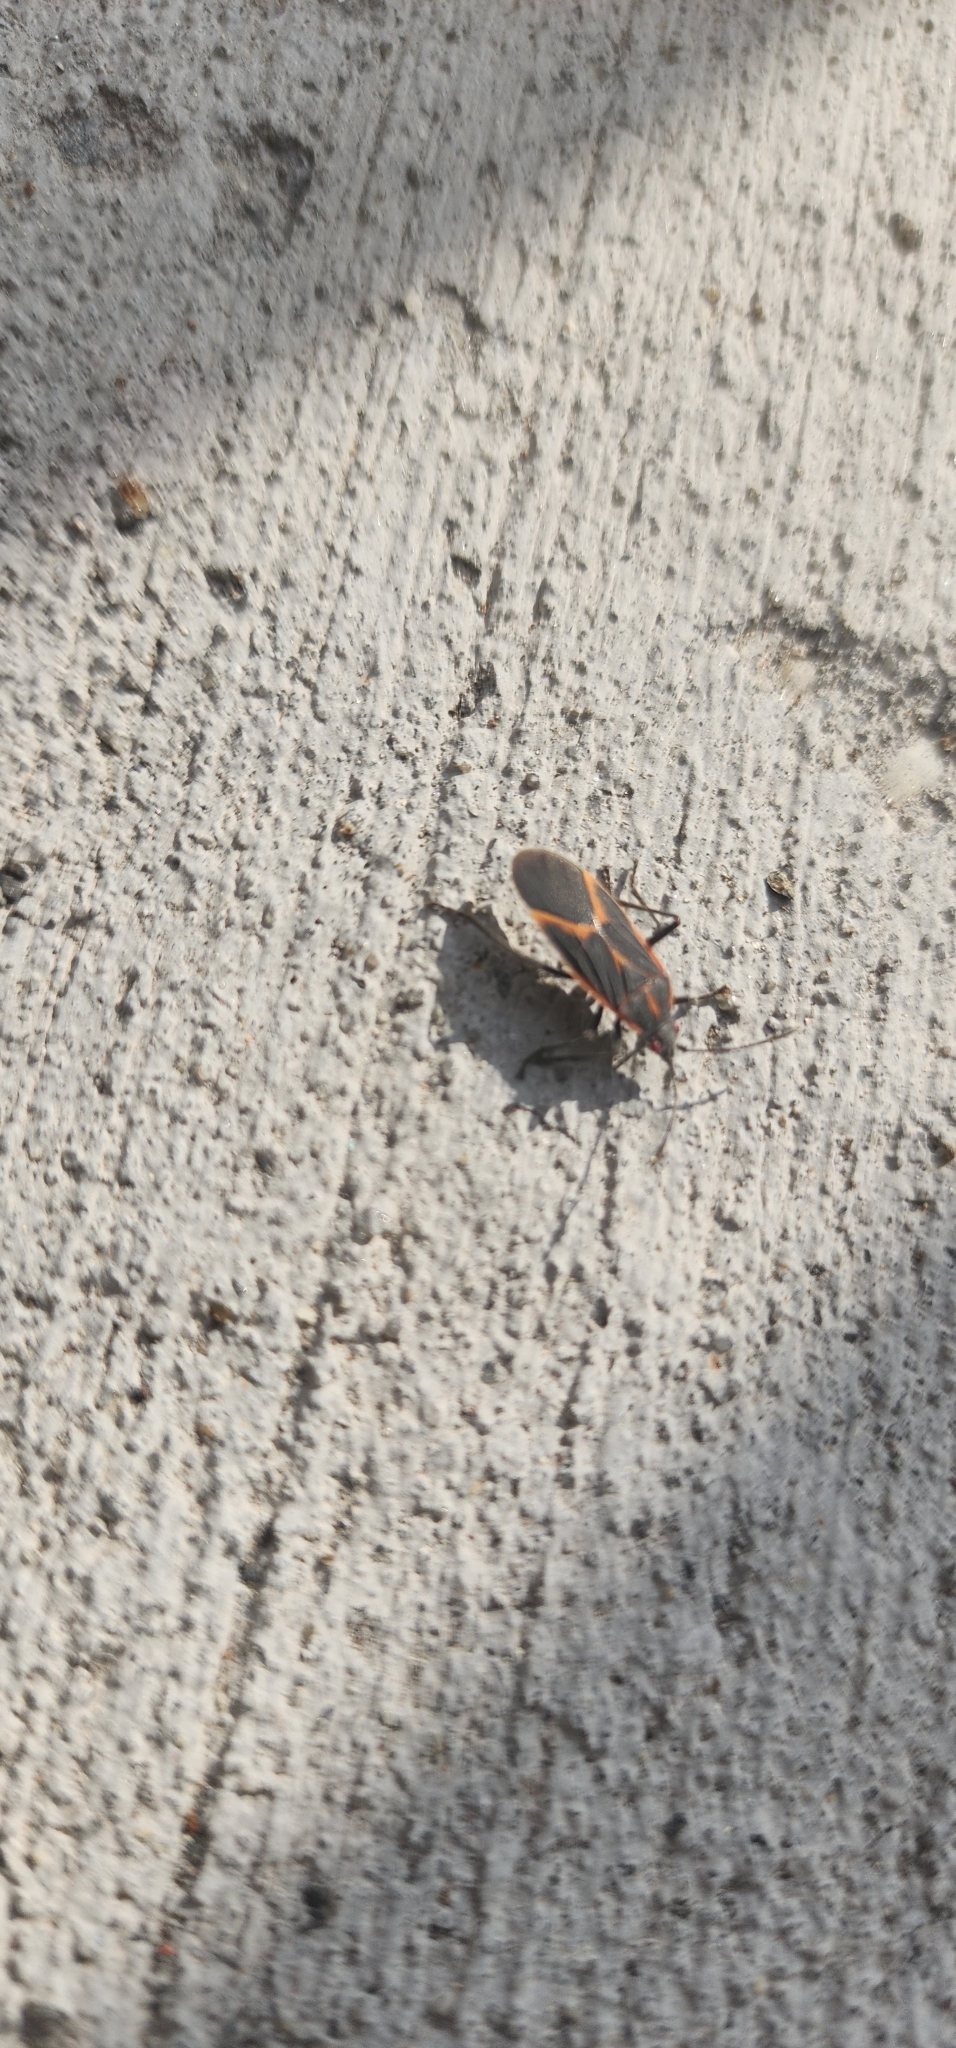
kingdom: Animalia
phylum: Arthropoda
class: Insecta
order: Hemiptera
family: Rhopalidae
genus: Boisea
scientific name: Boisea trivittata
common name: Boxelder bug
